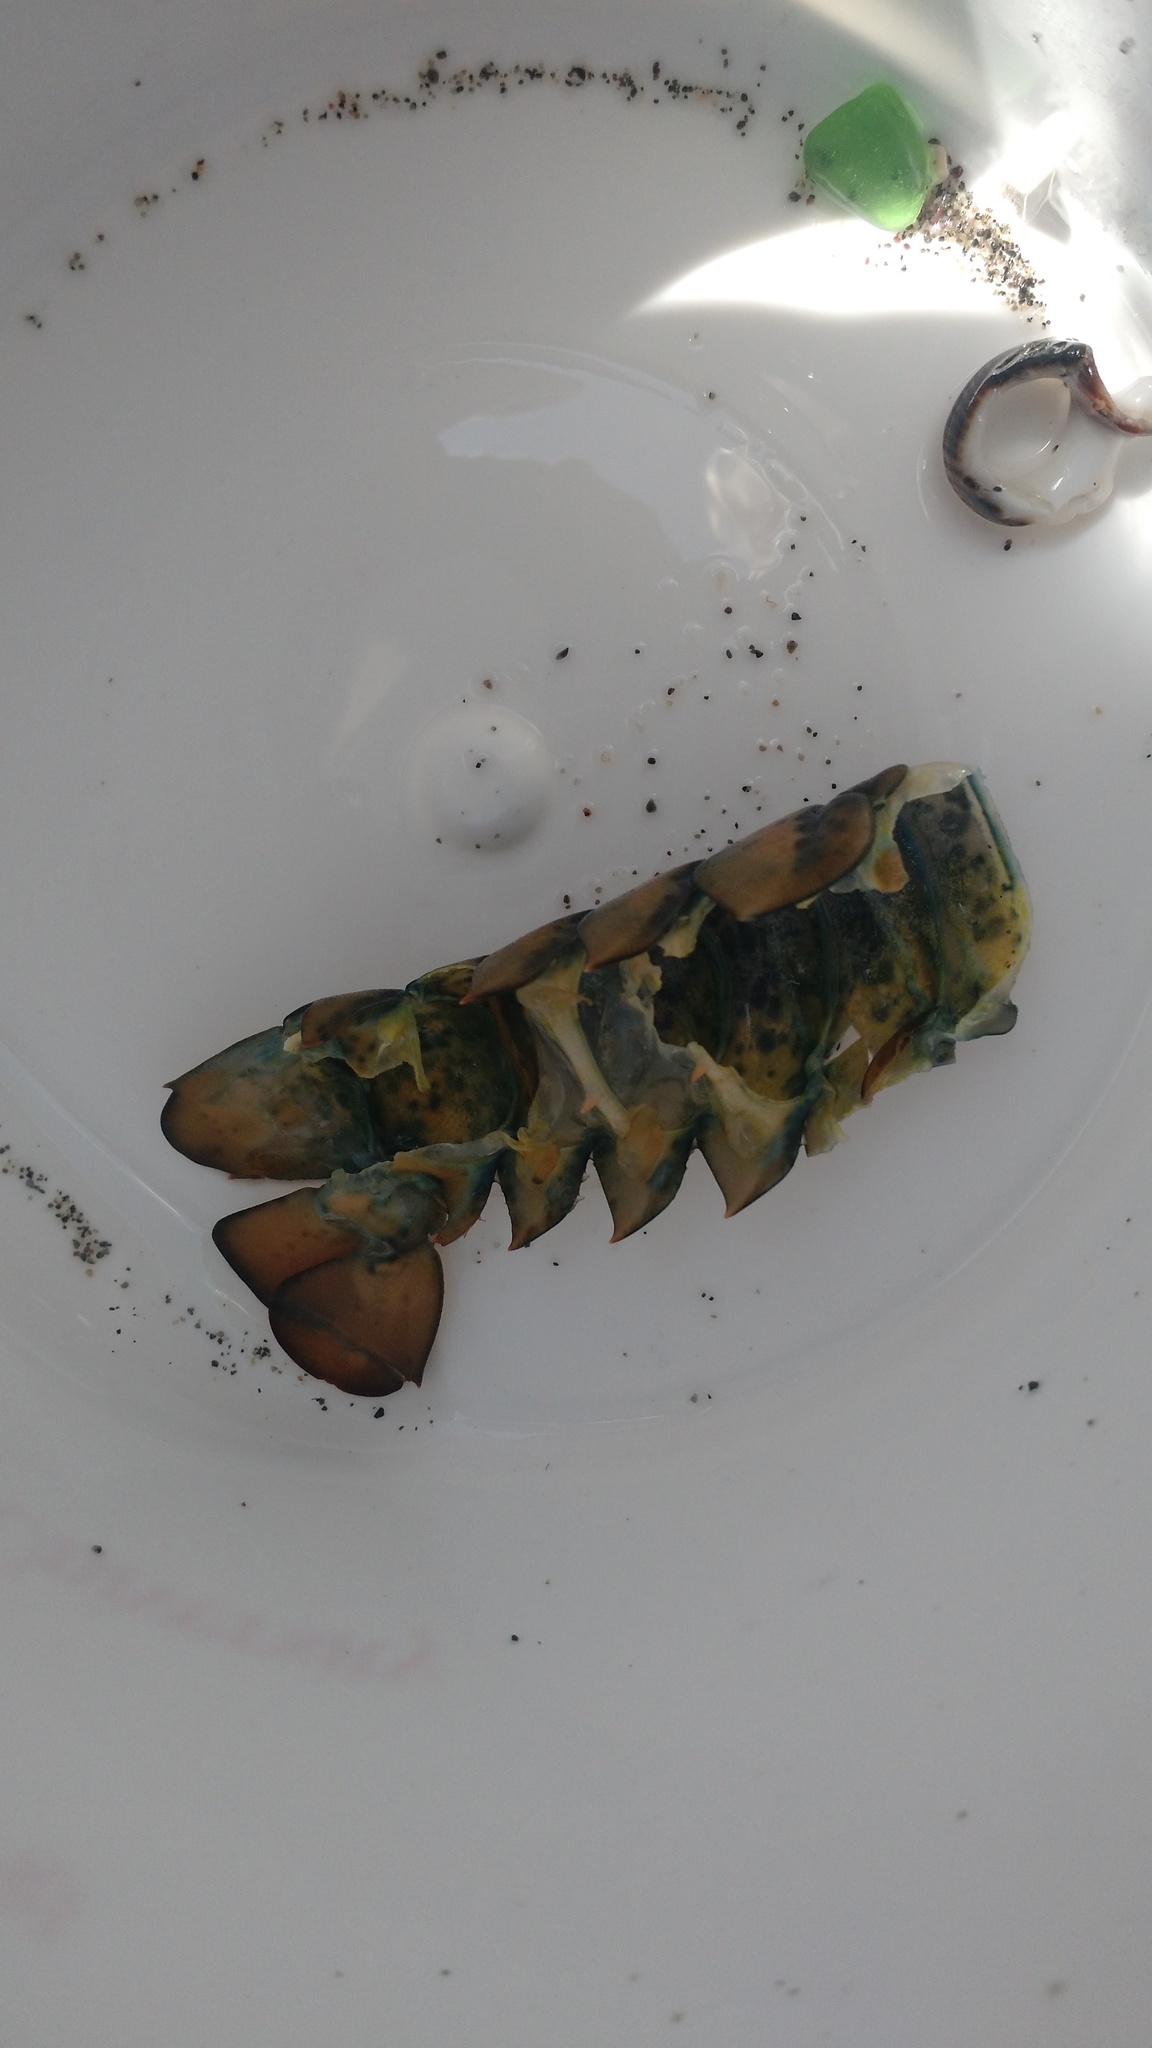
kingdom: Animalia
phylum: Arthropoda
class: Malacostraca
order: Decapoda
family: Nephropidae
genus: Homarus
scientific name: Homarus americanus
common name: American lobster
